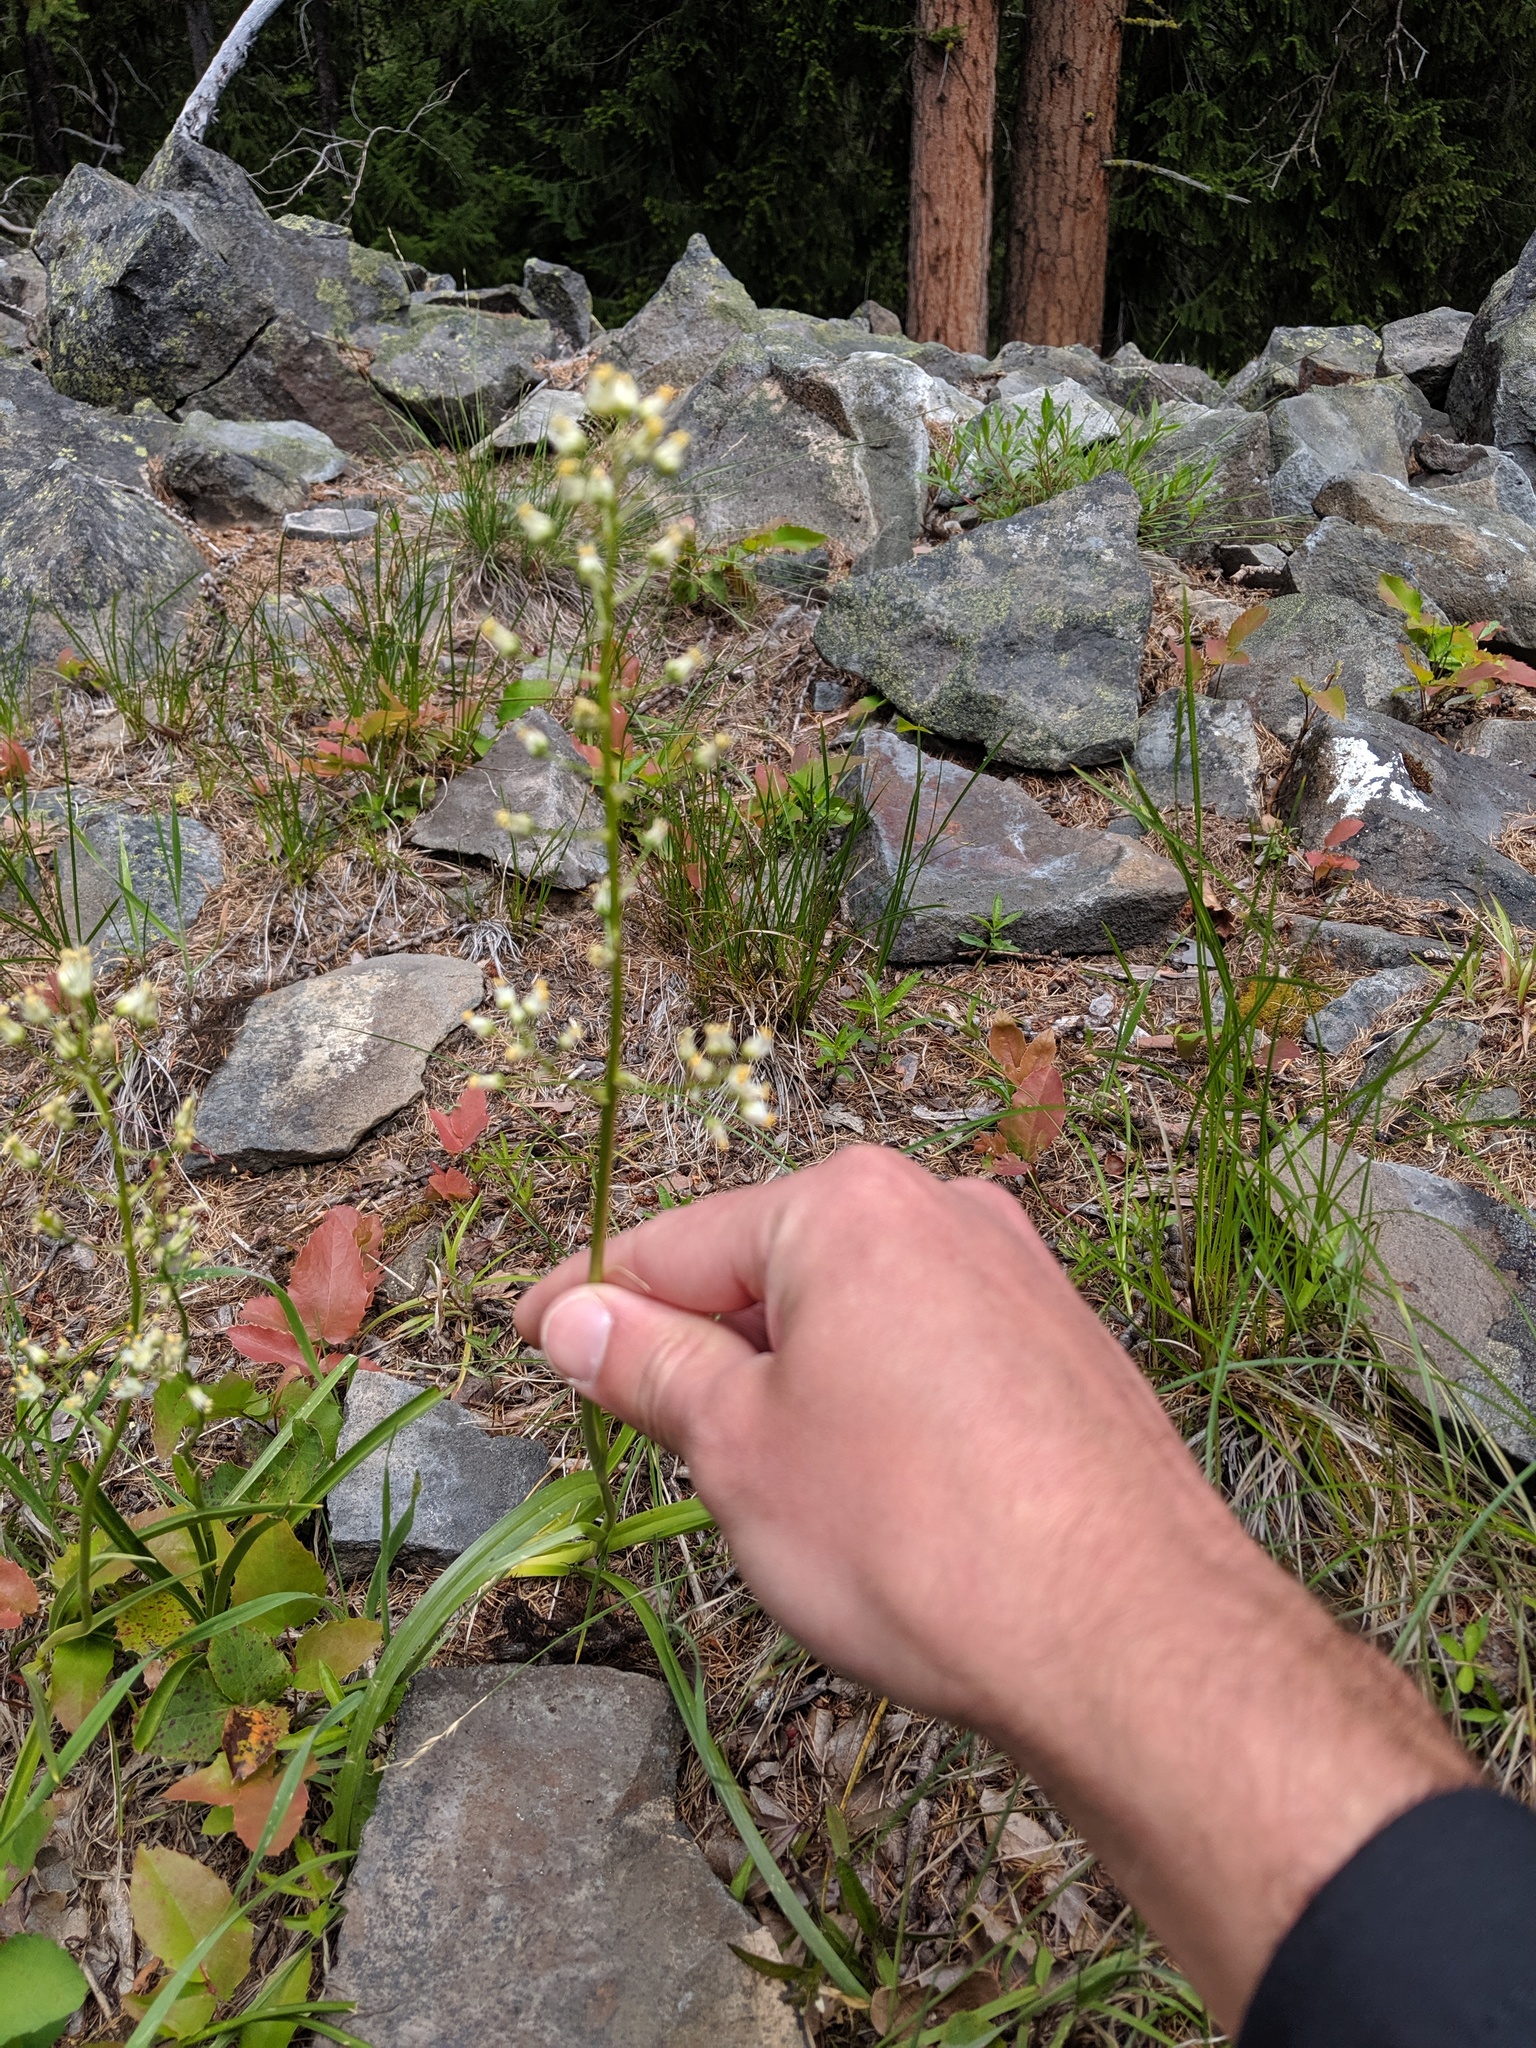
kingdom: Plantae
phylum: Tracheophyta
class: Liliopsida
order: Liliales
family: Melanthiaceae
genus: Toxicoscordion
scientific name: Toxicoscordion paniculatum
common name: Foothill death camas
